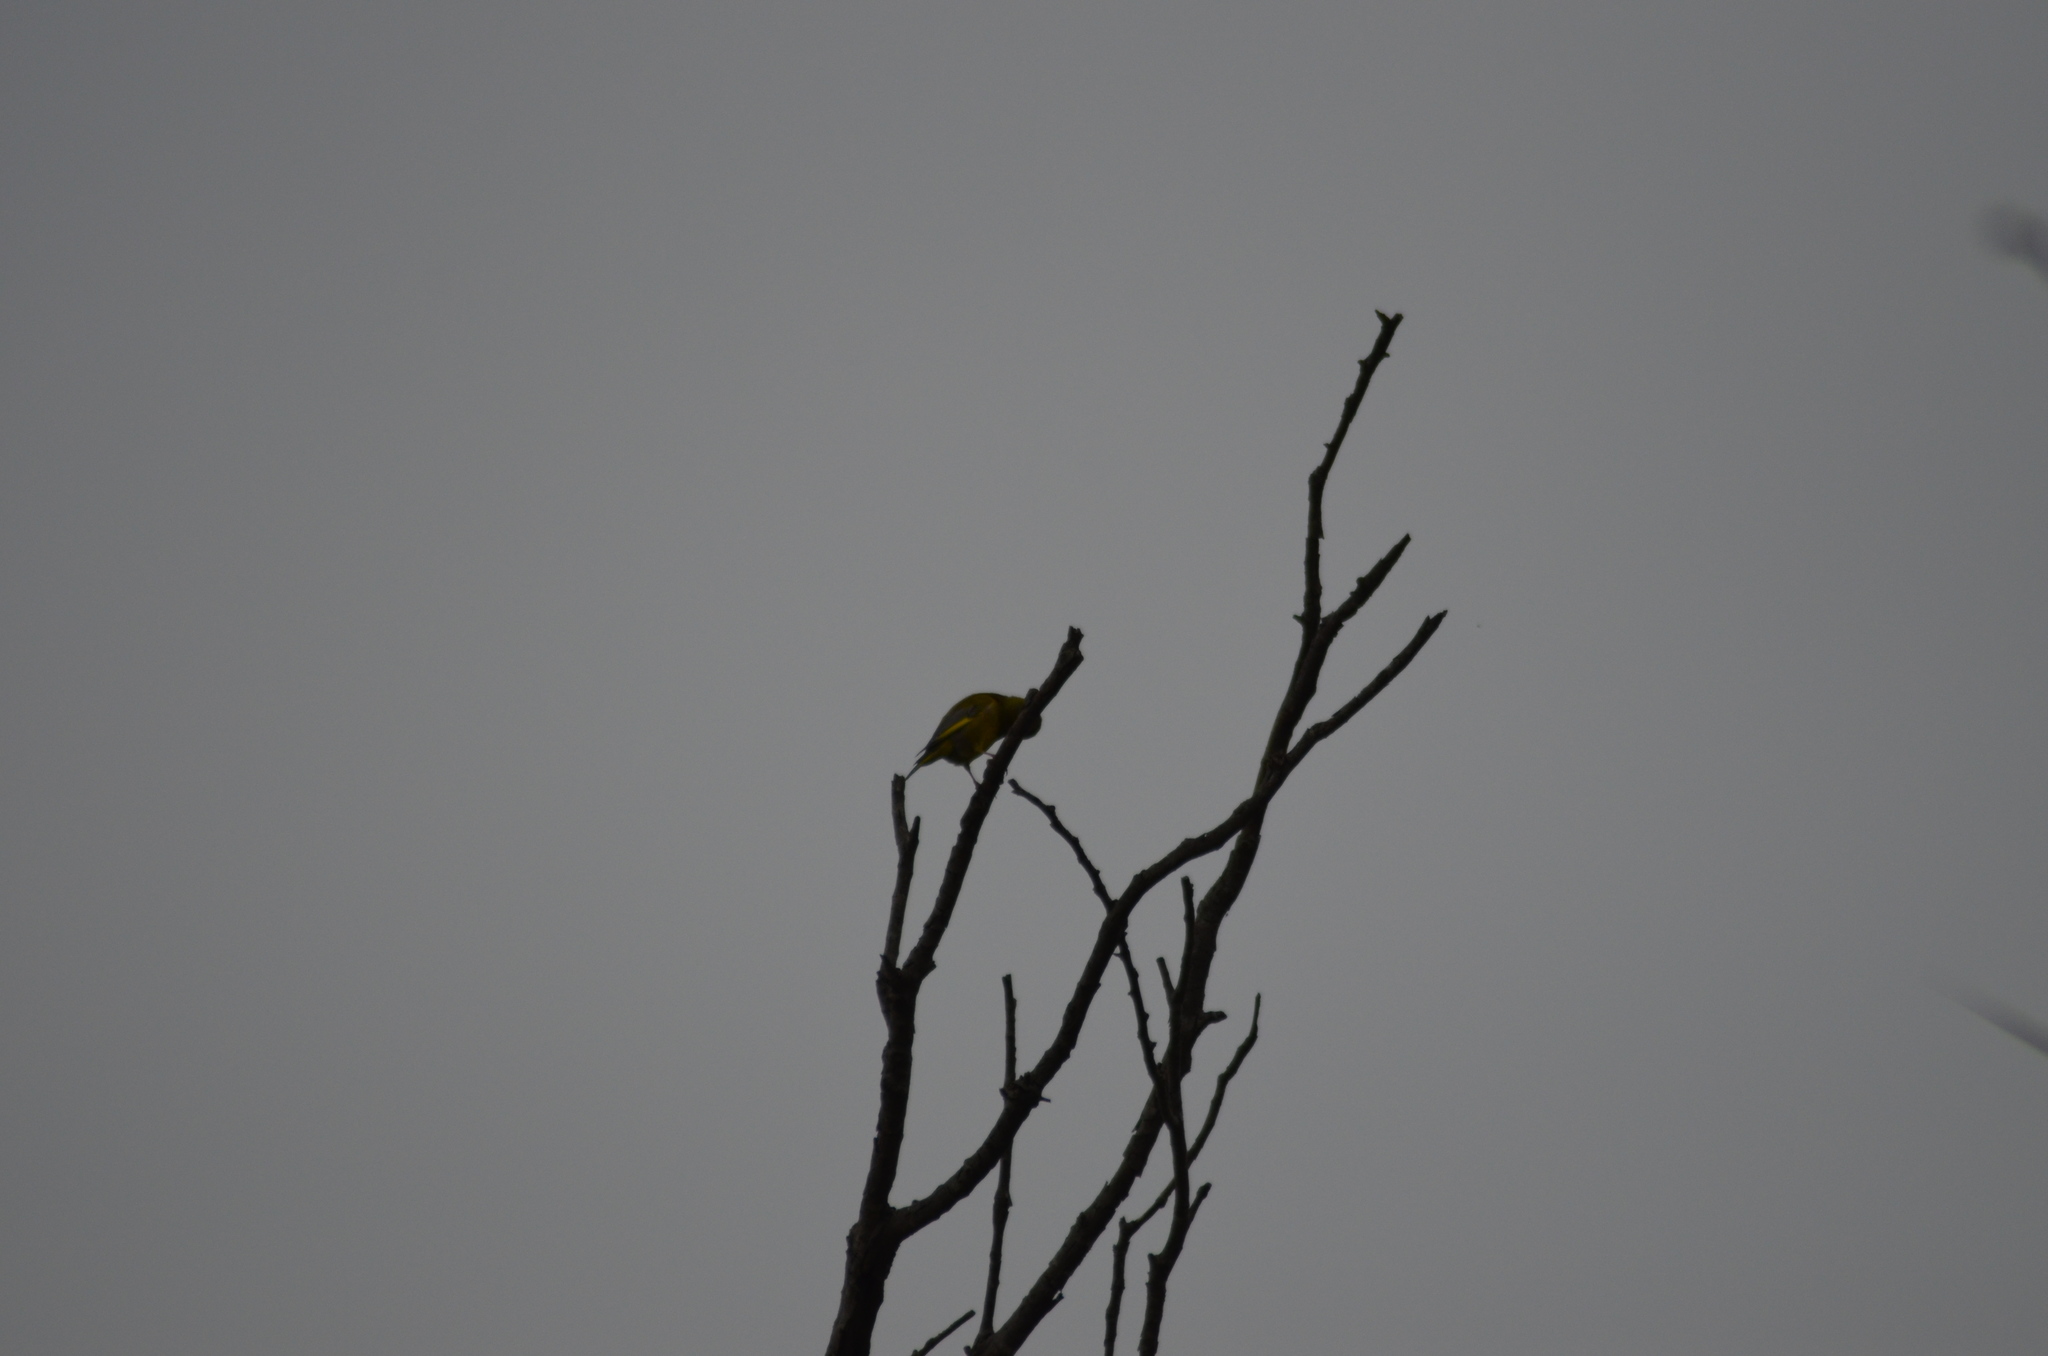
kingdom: Plantae
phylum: Tracheophyta
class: Liliopsida
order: Poales
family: Poaceae
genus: Chloris
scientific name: Chloris chloris
